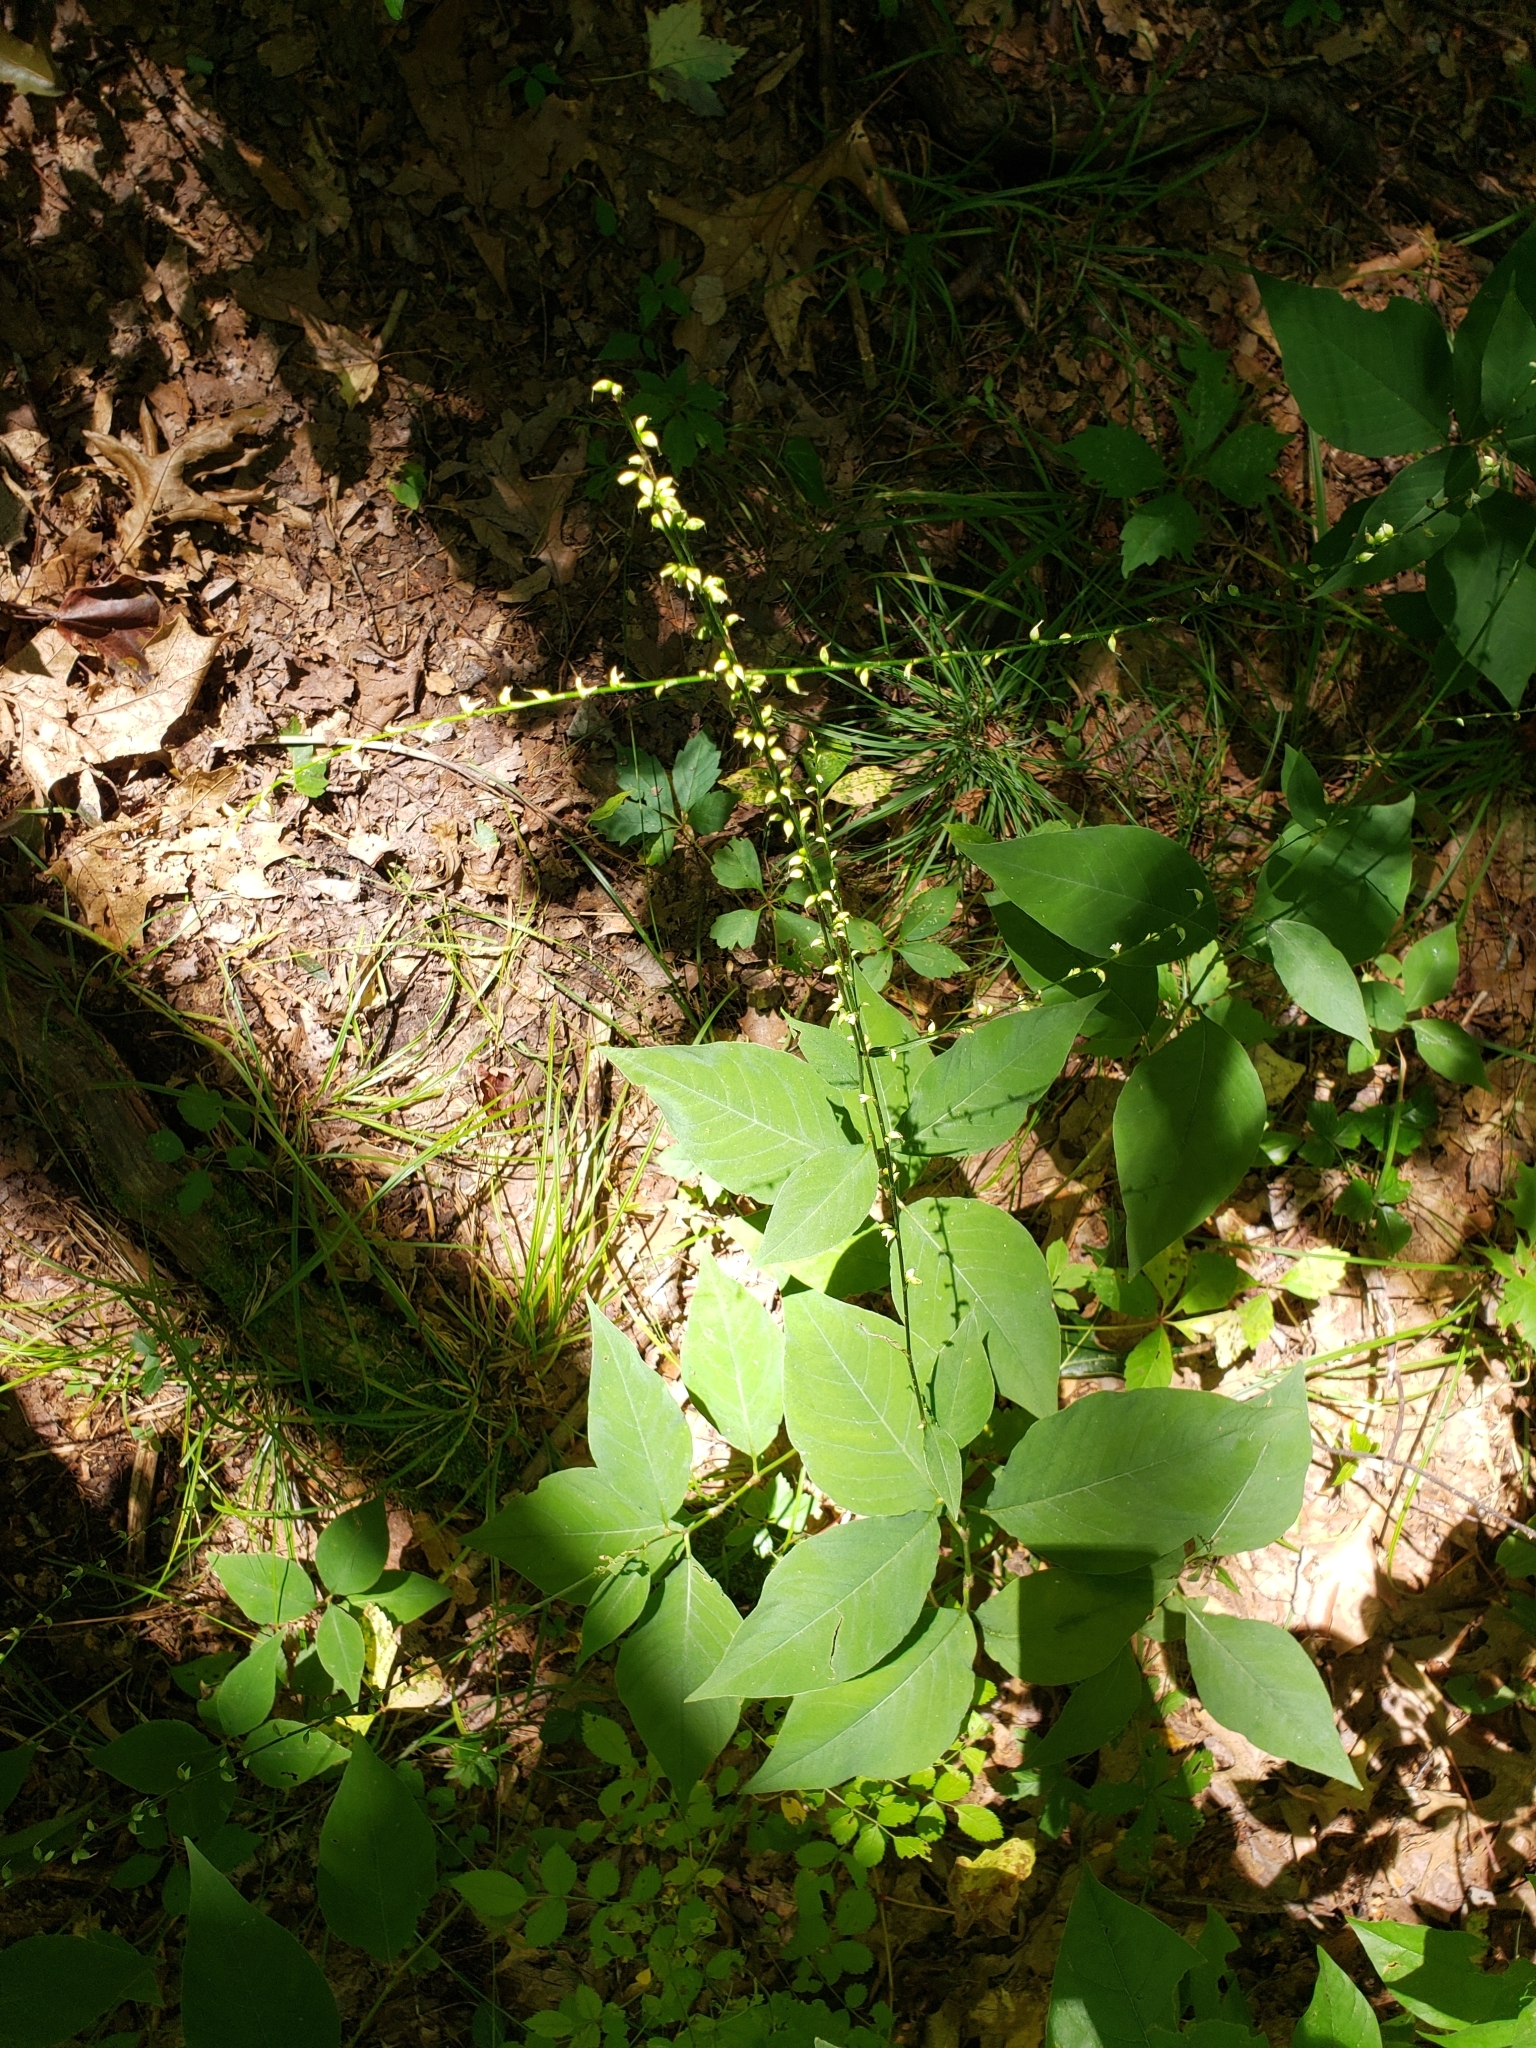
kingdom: Plantae
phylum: Tracheophyta
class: Magnoliopsida
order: Caryophyllales
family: Polygonaceae
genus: Persicaria
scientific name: Persicaria virginiana
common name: Jumpseed
